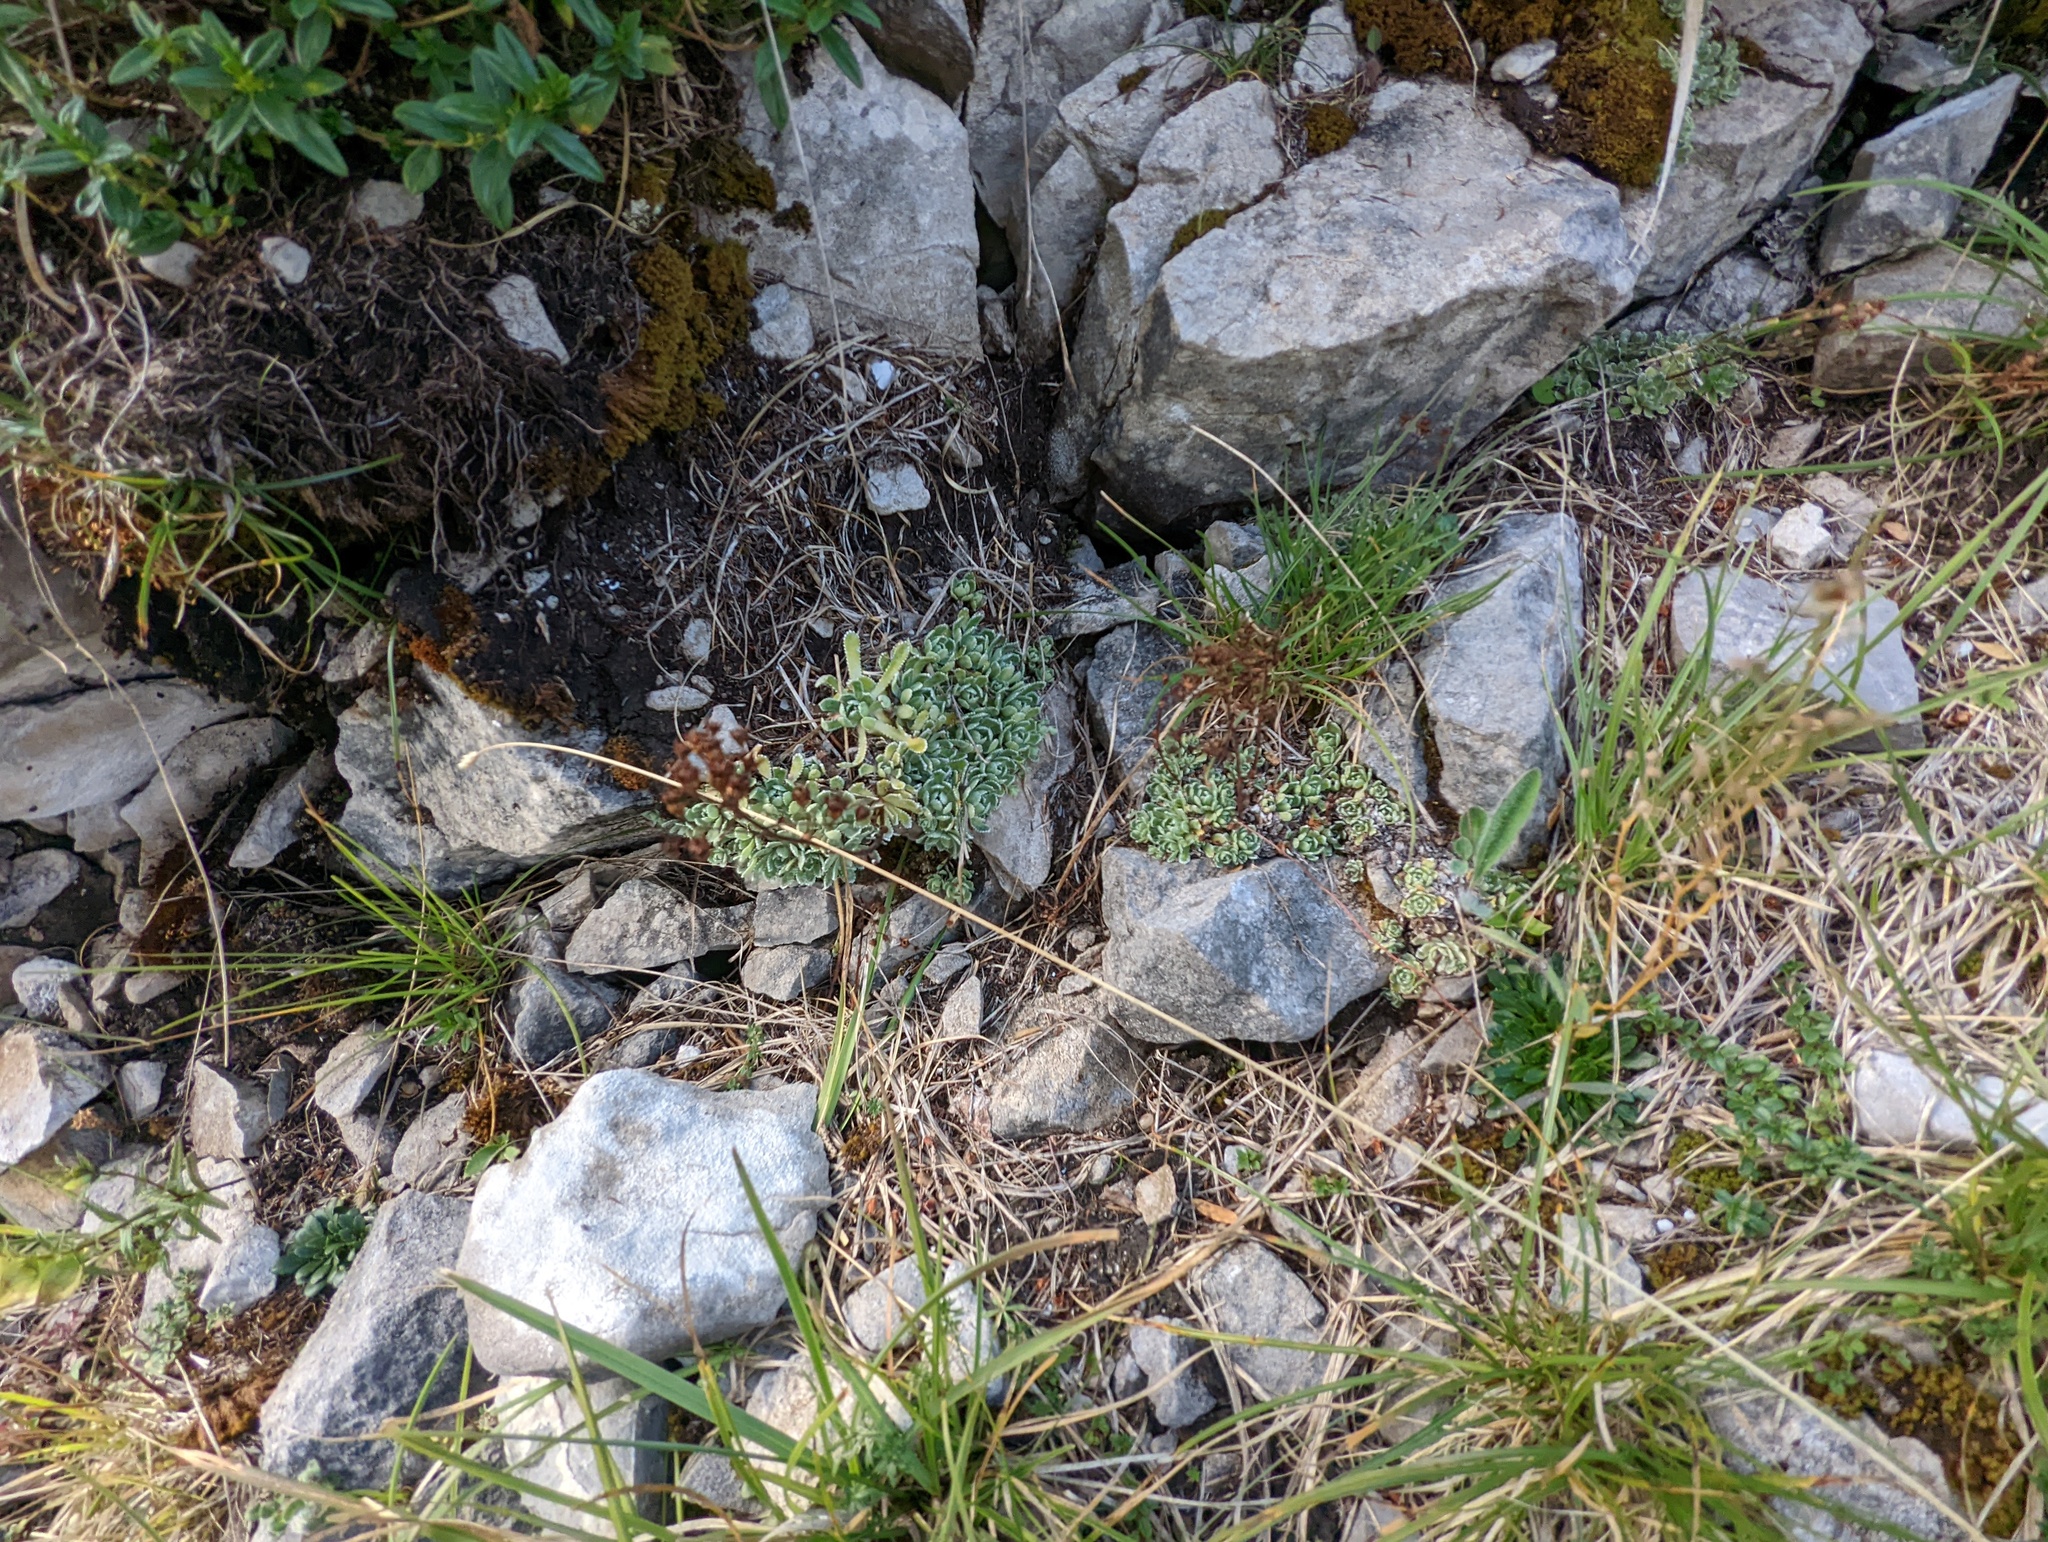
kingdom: Plantae
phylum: Tracheophyta
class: Magnoliopsida
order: Saxifragales
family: Saxifragaceae
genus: Saxifraga
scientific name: Saxifraga paniculata
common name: Livelong saxifrage
